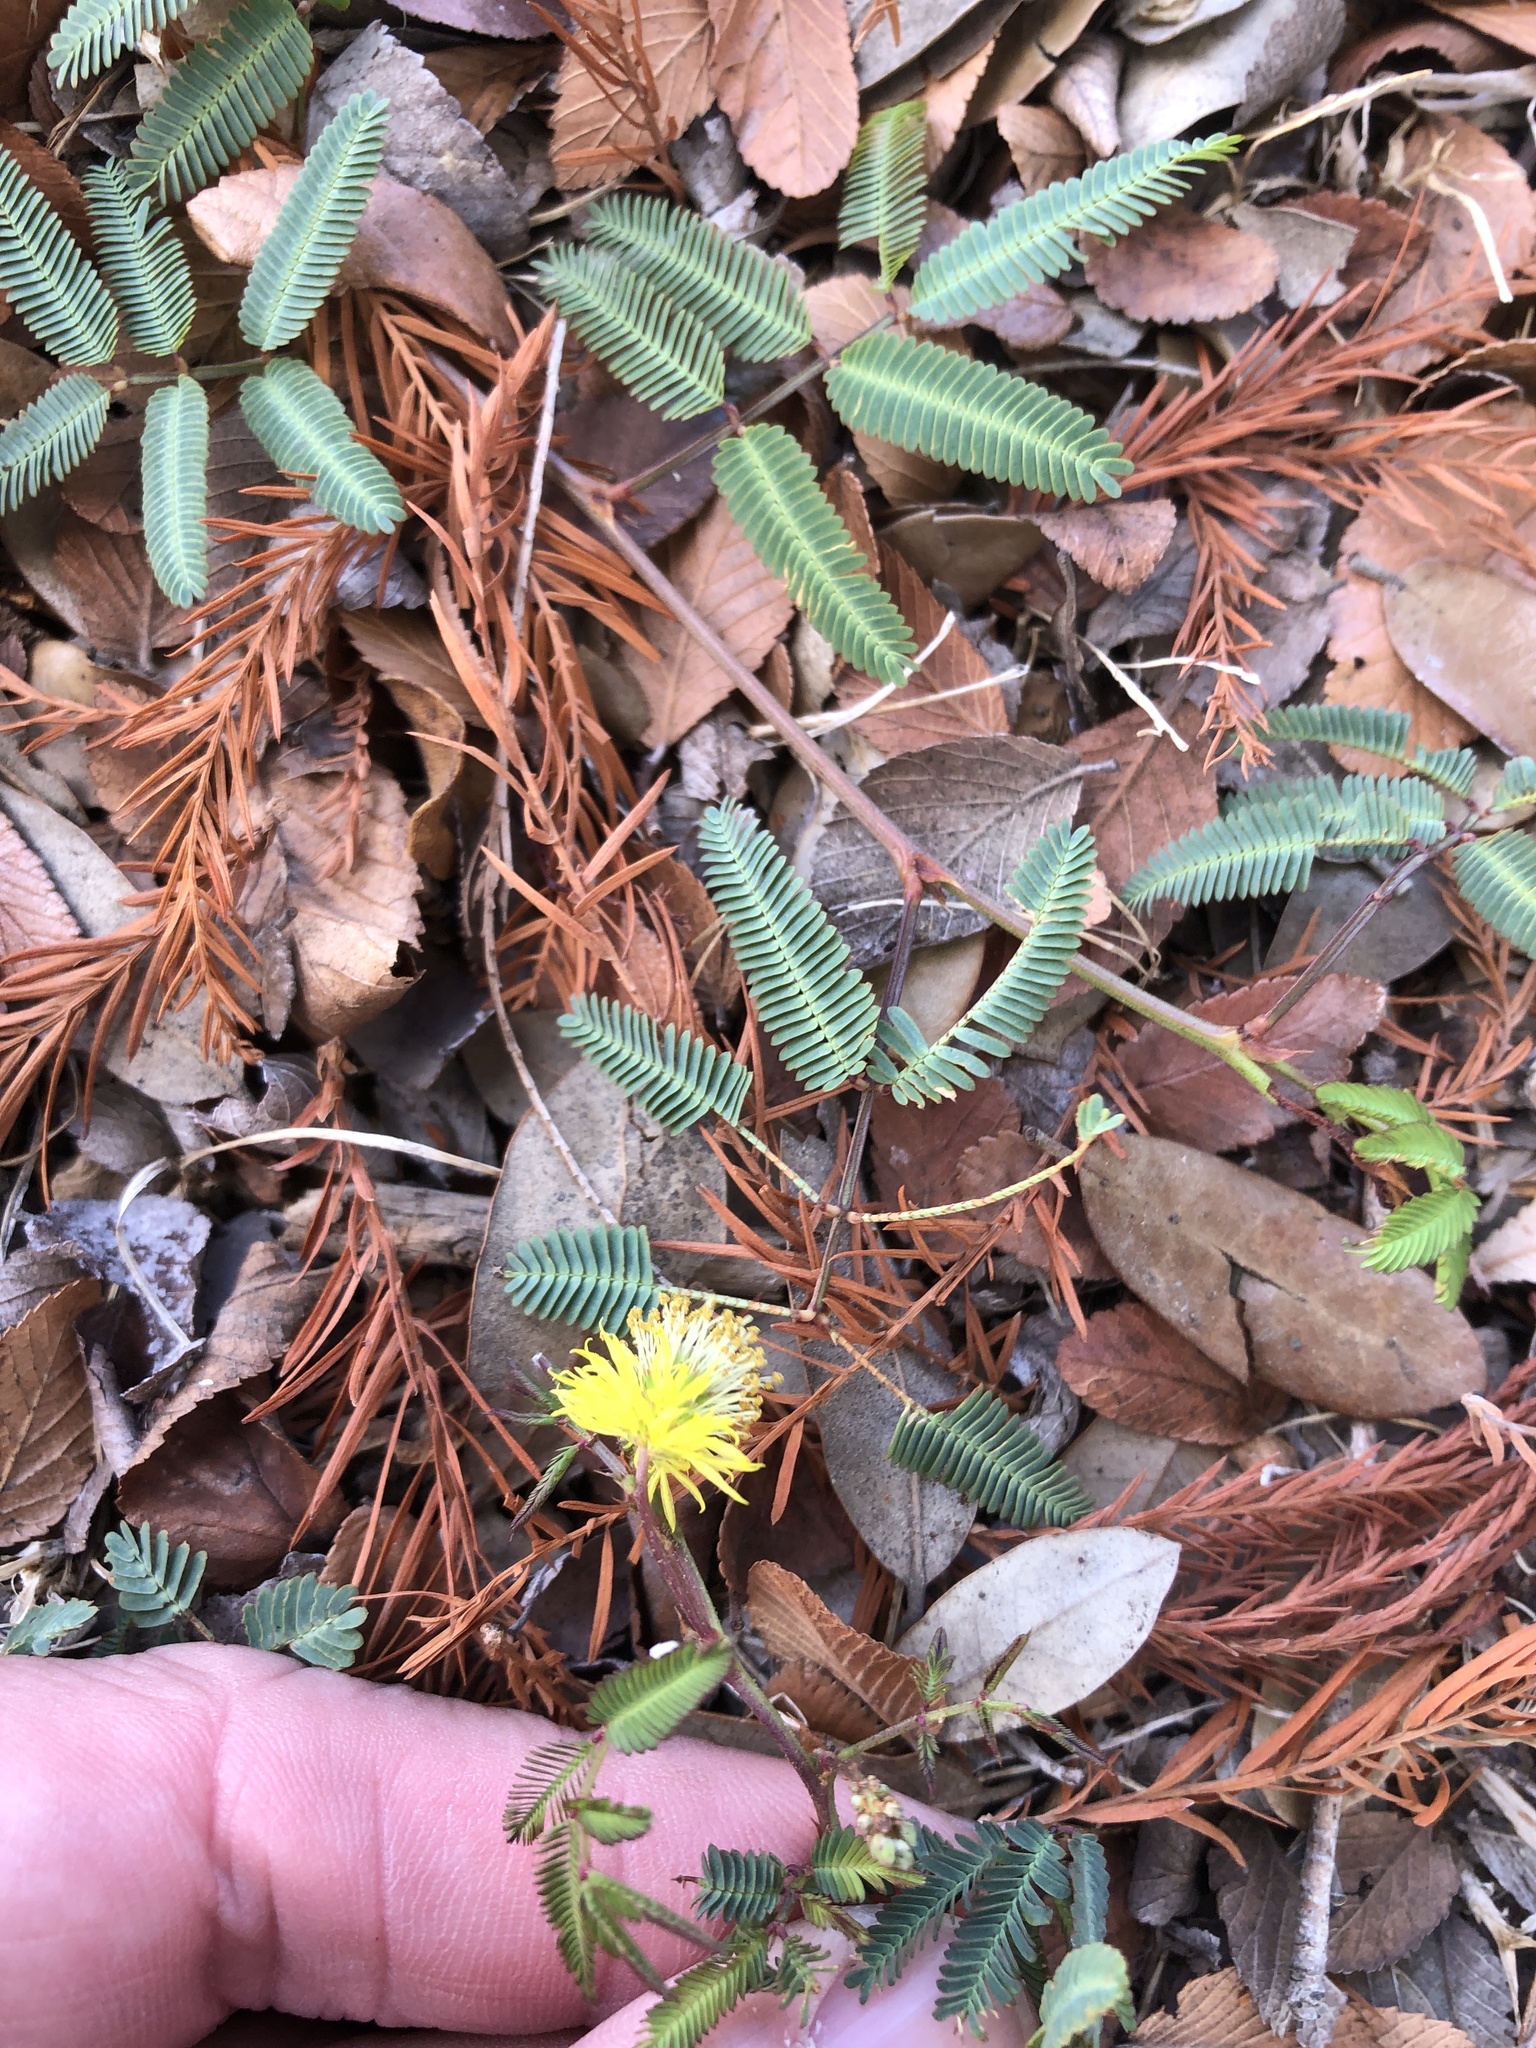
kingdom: Plantae
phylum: Tracheophyta
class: Magnoliopsida
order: Fabales
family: Fabaceae
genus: Neptunia
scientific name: Neptunia lutea
